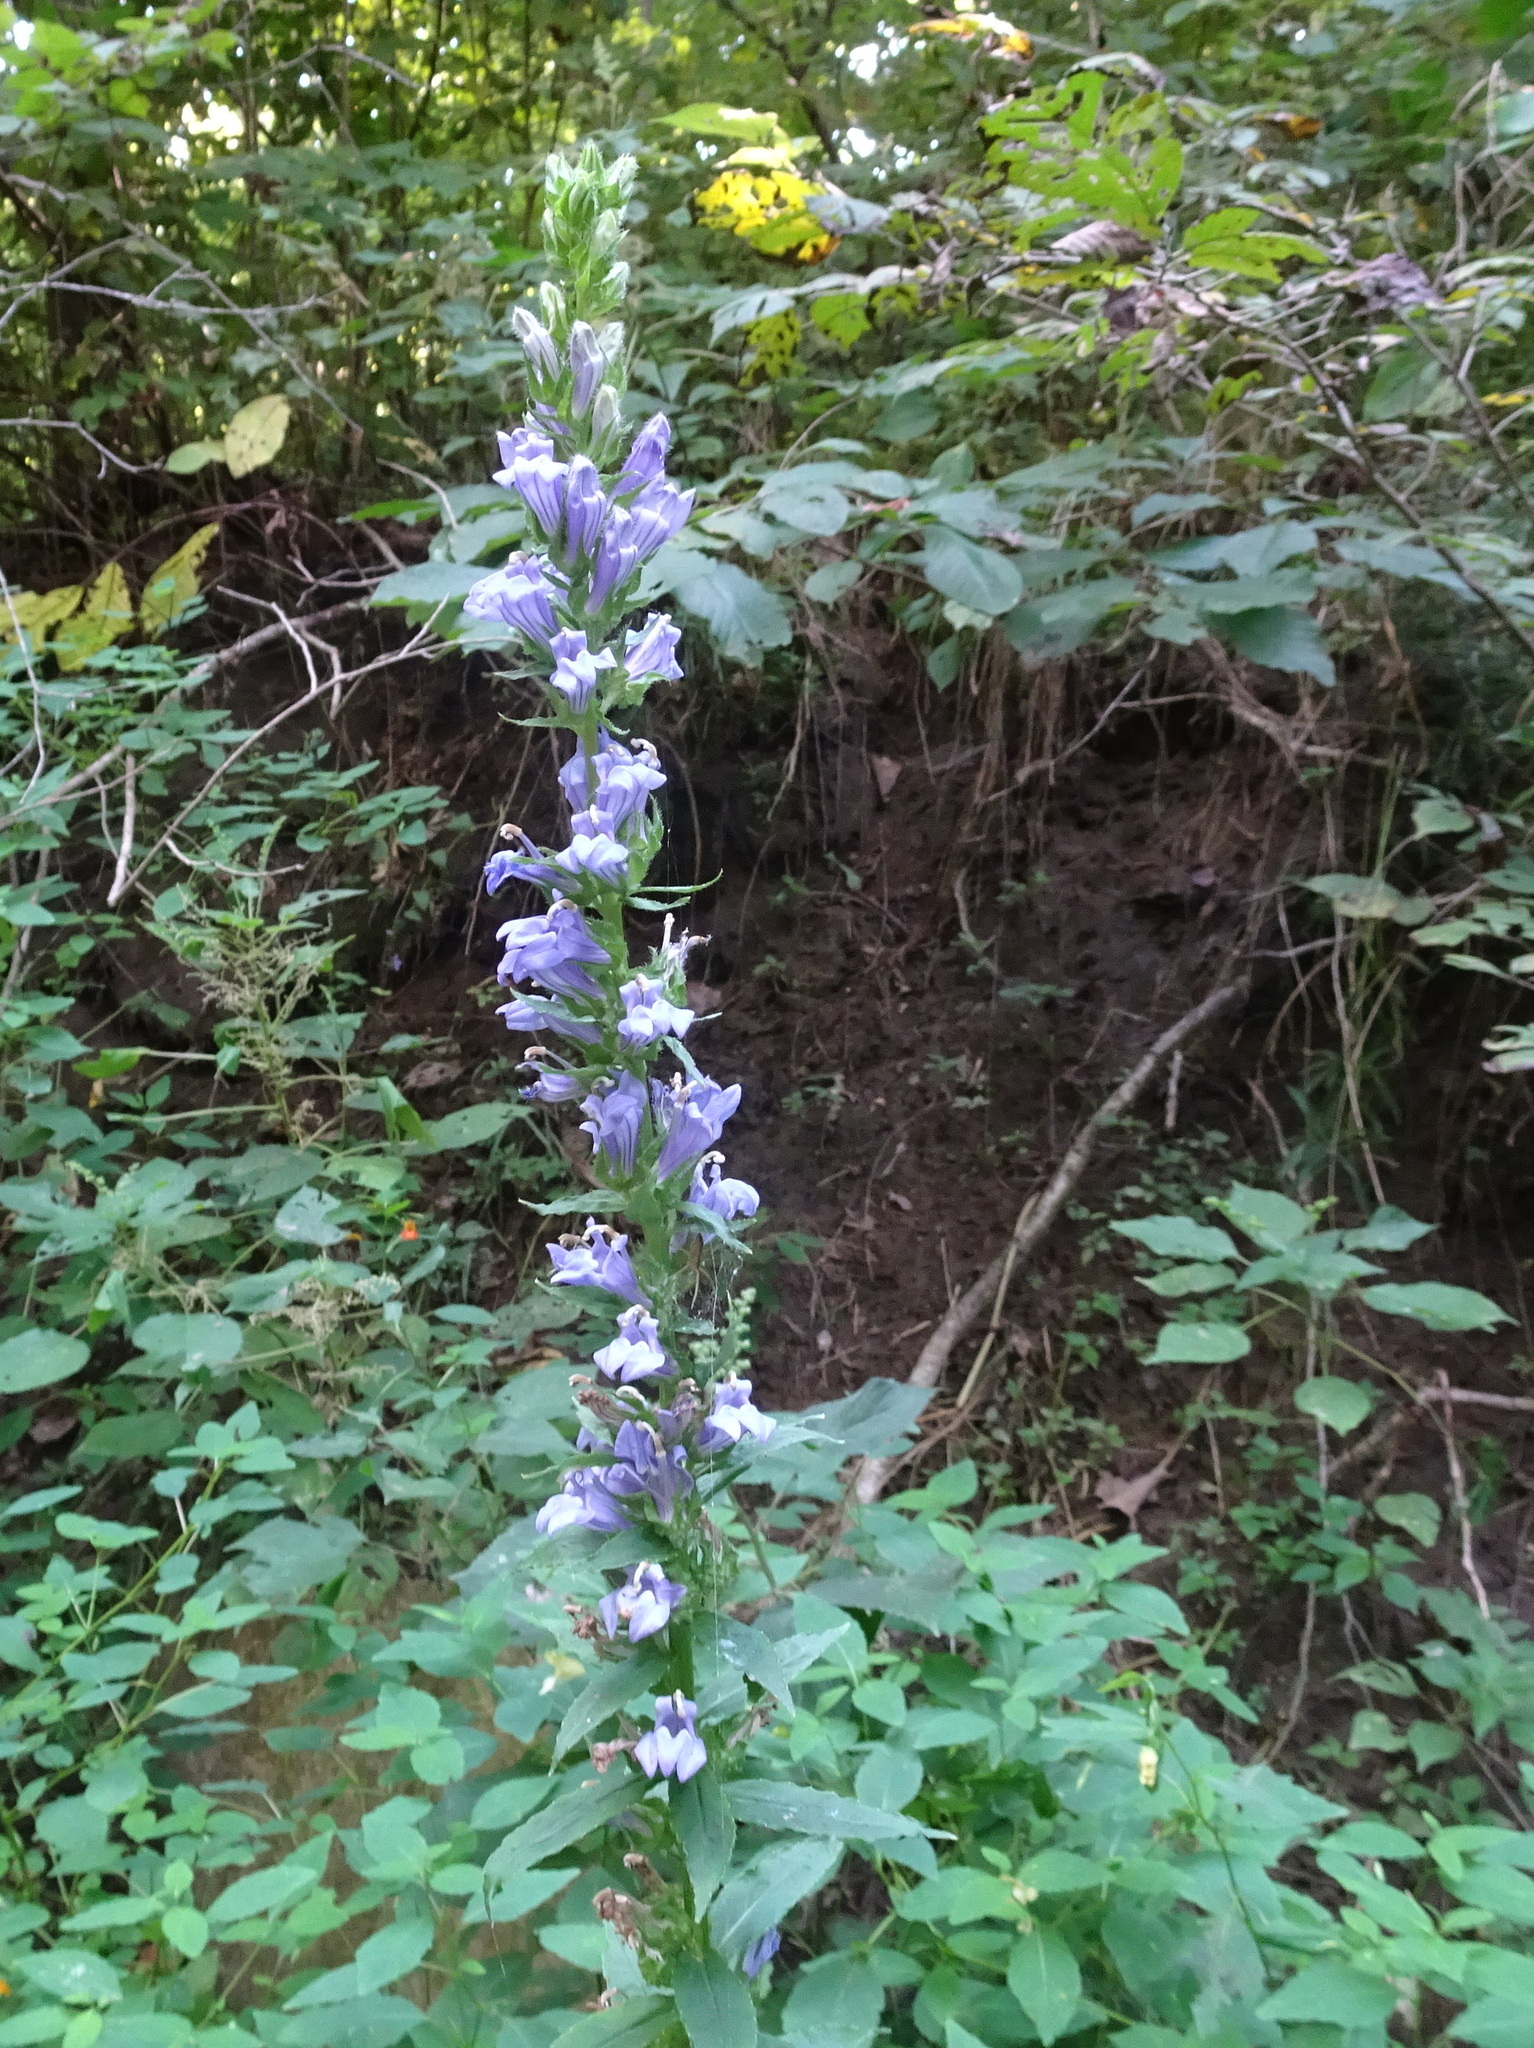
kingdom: Plantae
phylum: Tracheophyta
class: Magnoliopsida
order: Asterales
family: Campanulaceae
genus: Lobelia
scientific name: Lobelia siphilitica
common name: Great lobelia
